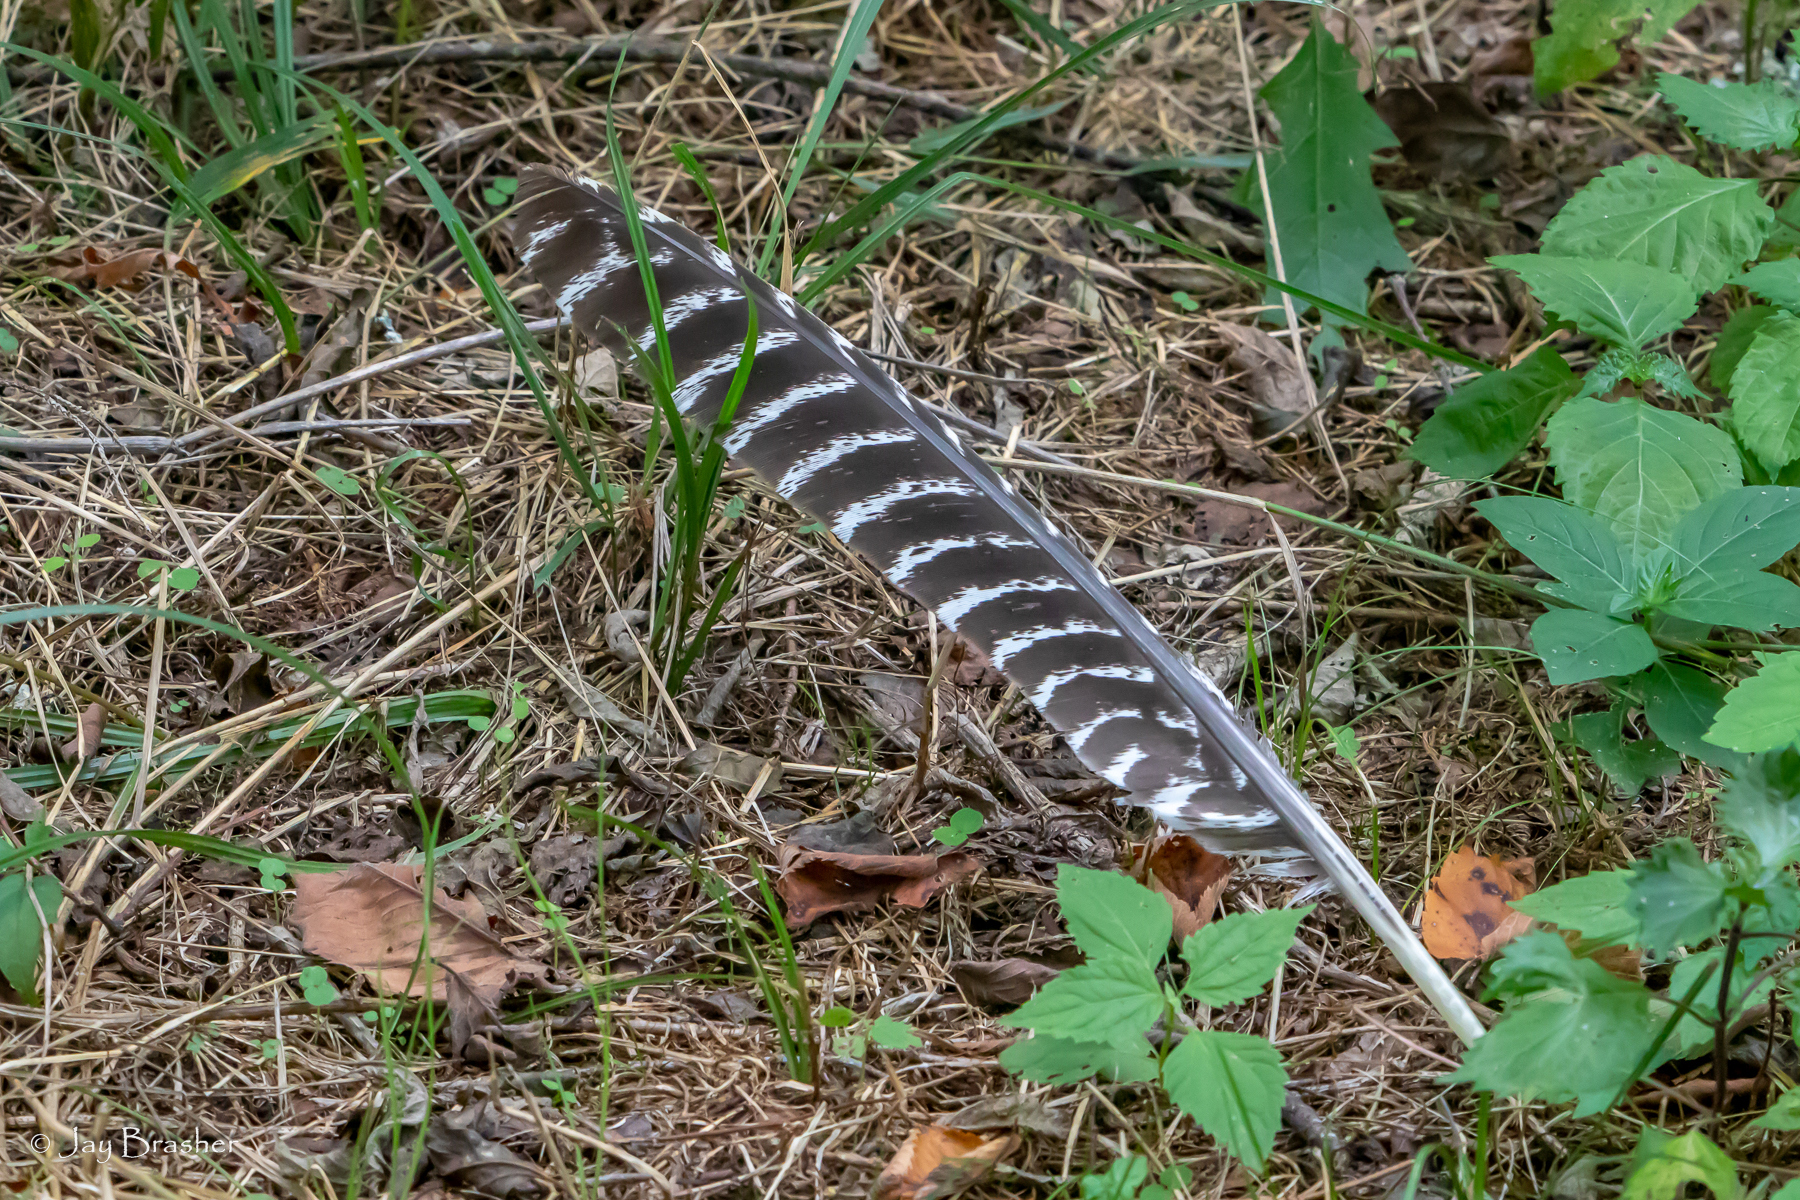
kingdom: Animalia
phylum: Chordata
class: Aves
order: Galliformes
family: Phasianidae
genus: Meleagris
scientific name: Meleagris gallopavo
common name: Wild turkey
